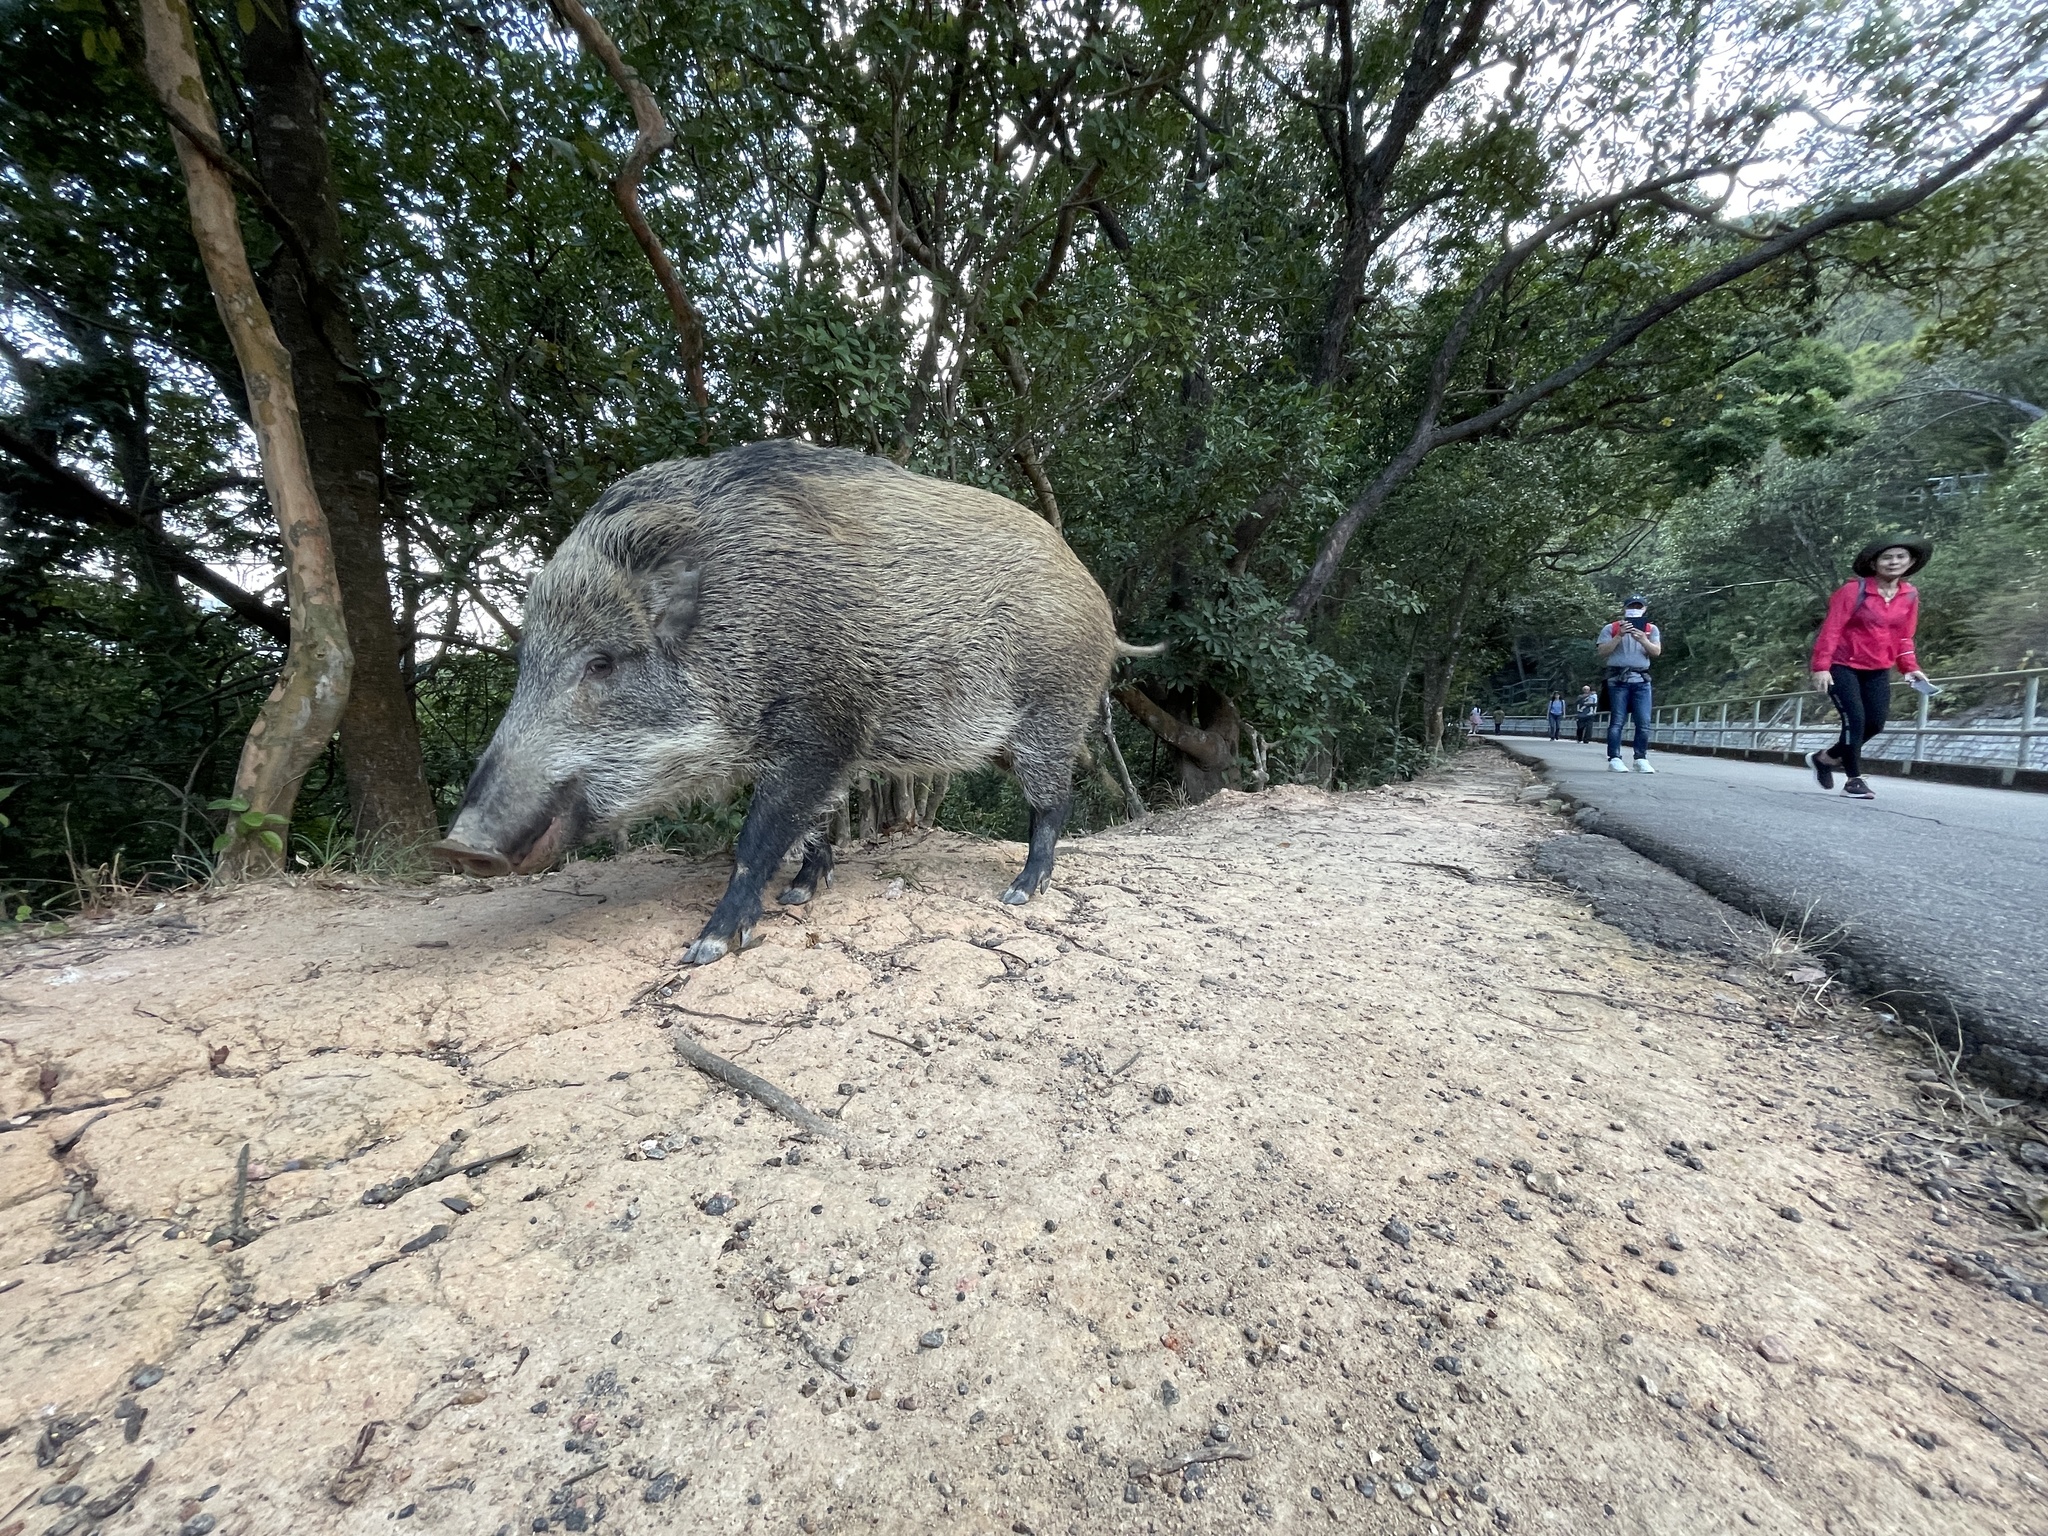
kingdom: Animalia
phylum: Chordata
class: Mammalia
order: Artiodactyla
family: Suidae
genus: Sus
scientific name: Sus scrofa
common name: Wild boar
